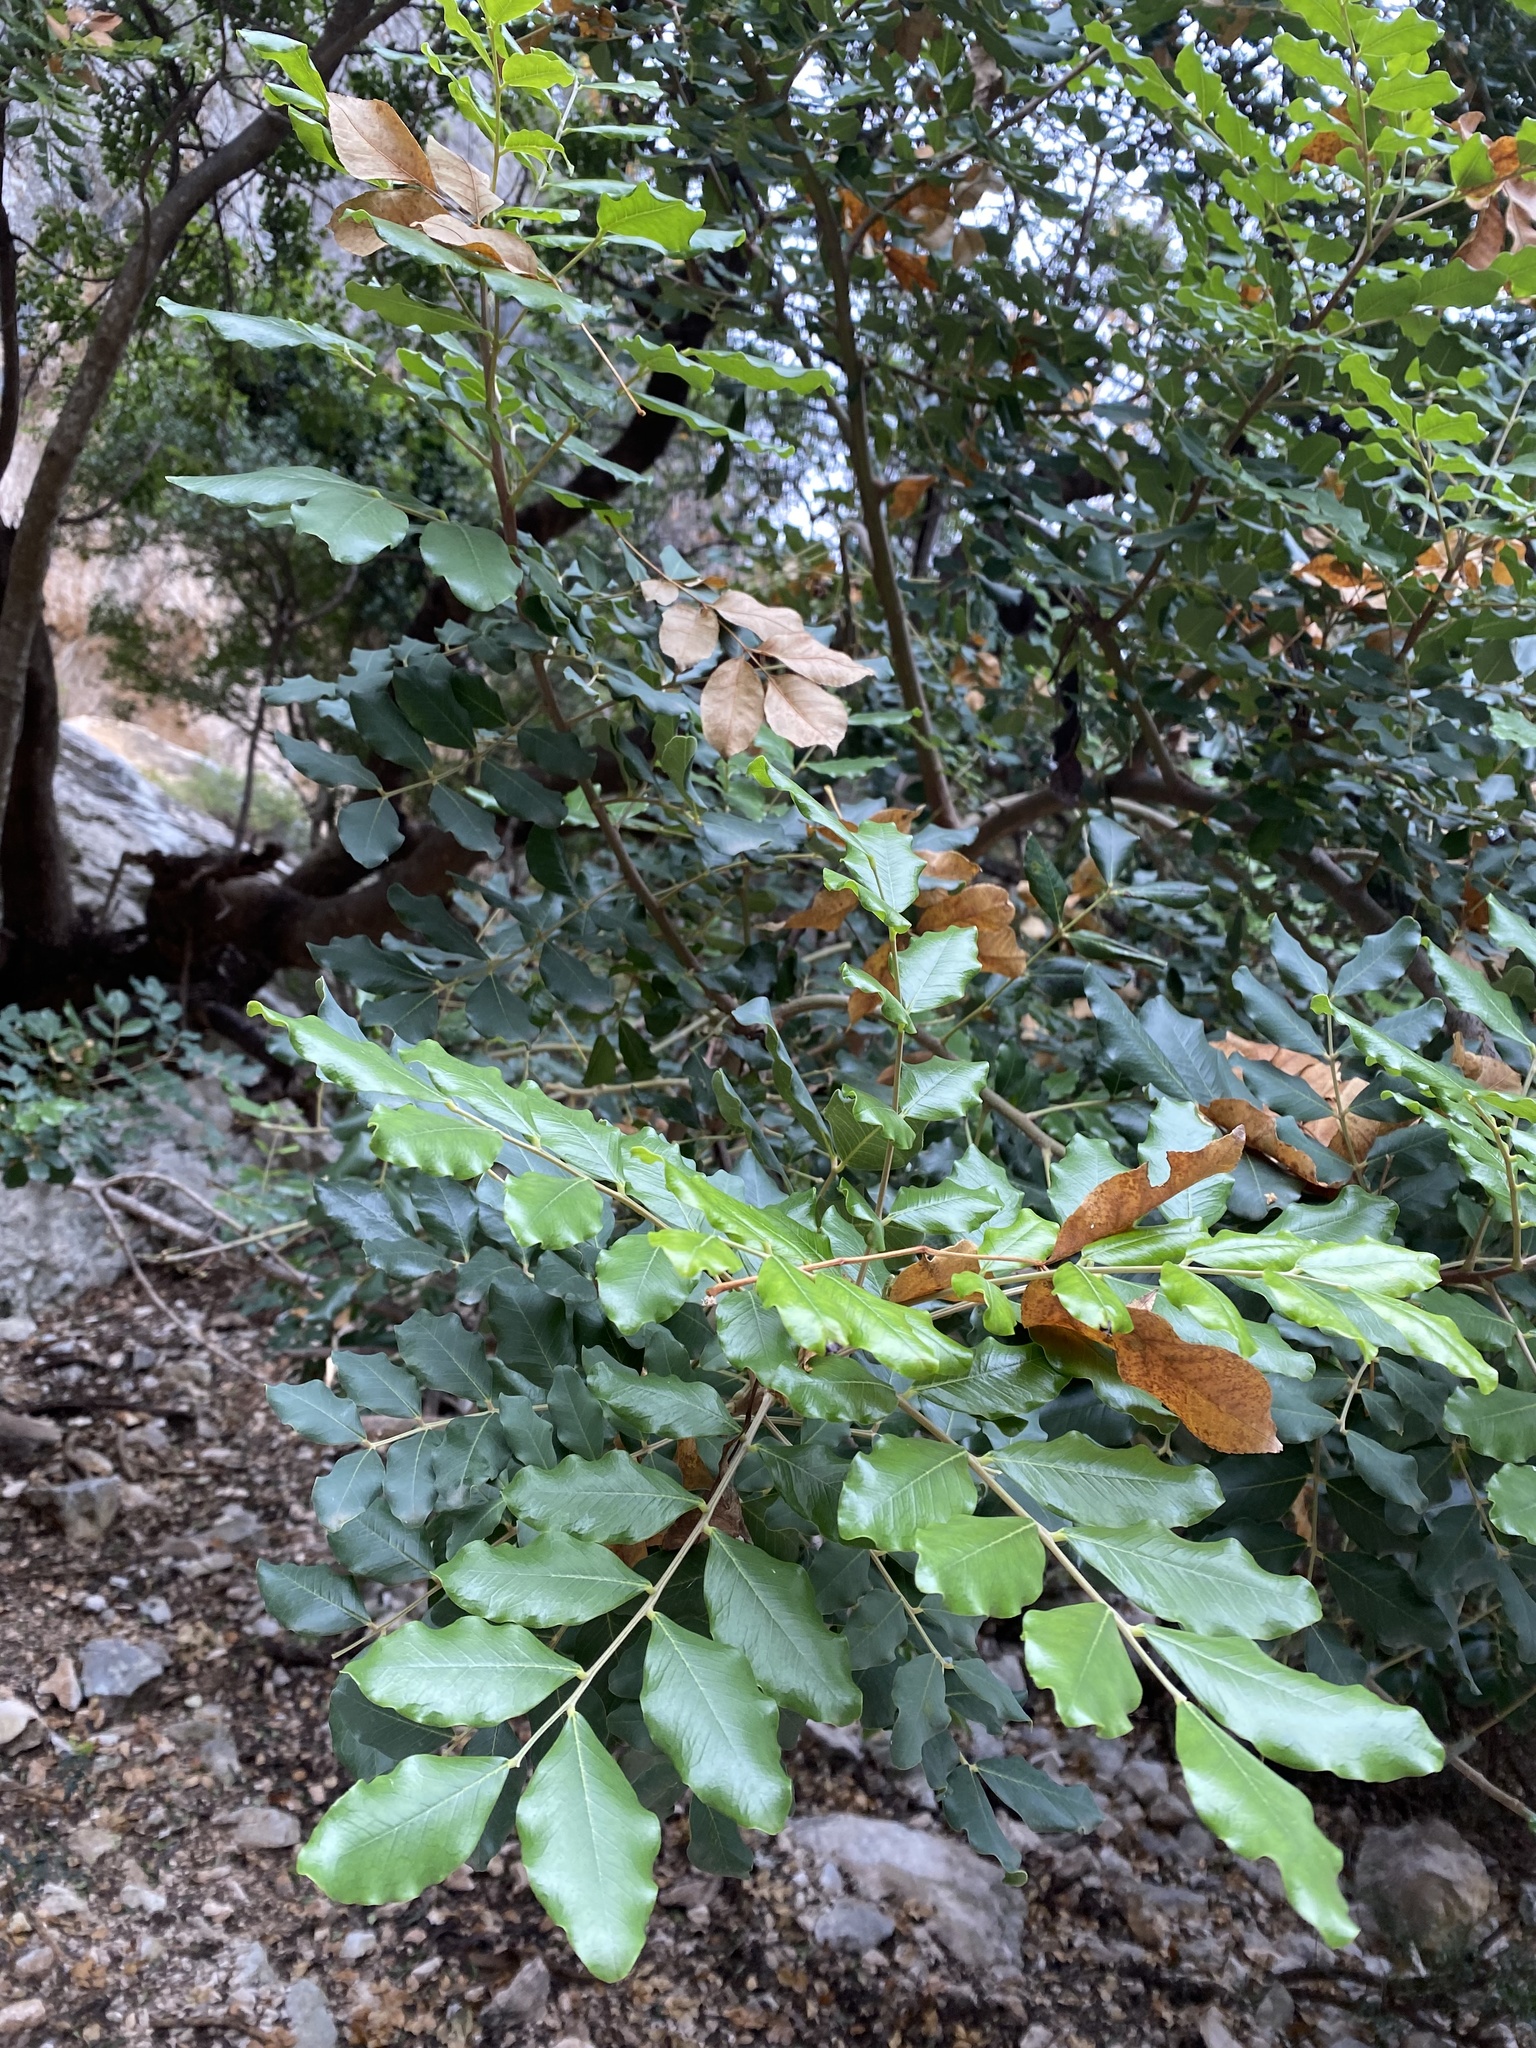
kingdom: Plantae
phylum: Tracheophyta
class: Magnoliopsida
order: Fabales
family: Fabaceae
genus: Ceratonia
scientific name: Ceratonia siliqua
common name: Carob
